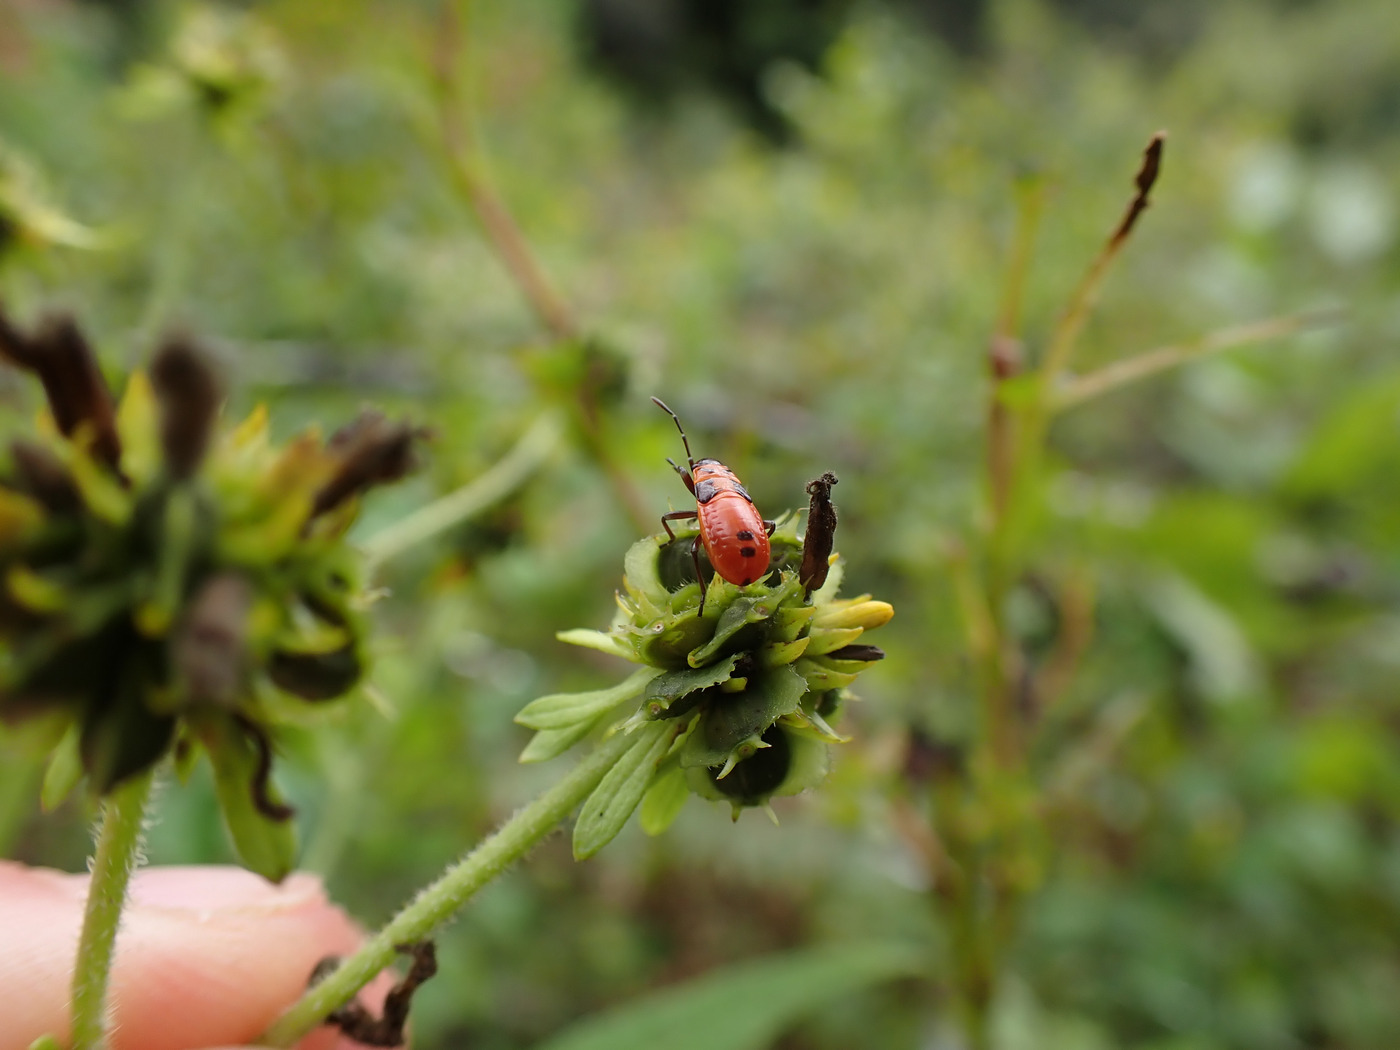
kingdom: Animalia
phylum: Arthropoda
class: Insecta
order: Hemiptera
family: Lygaeidae
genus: Lygaeus
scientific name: Lygaeus turcicus
